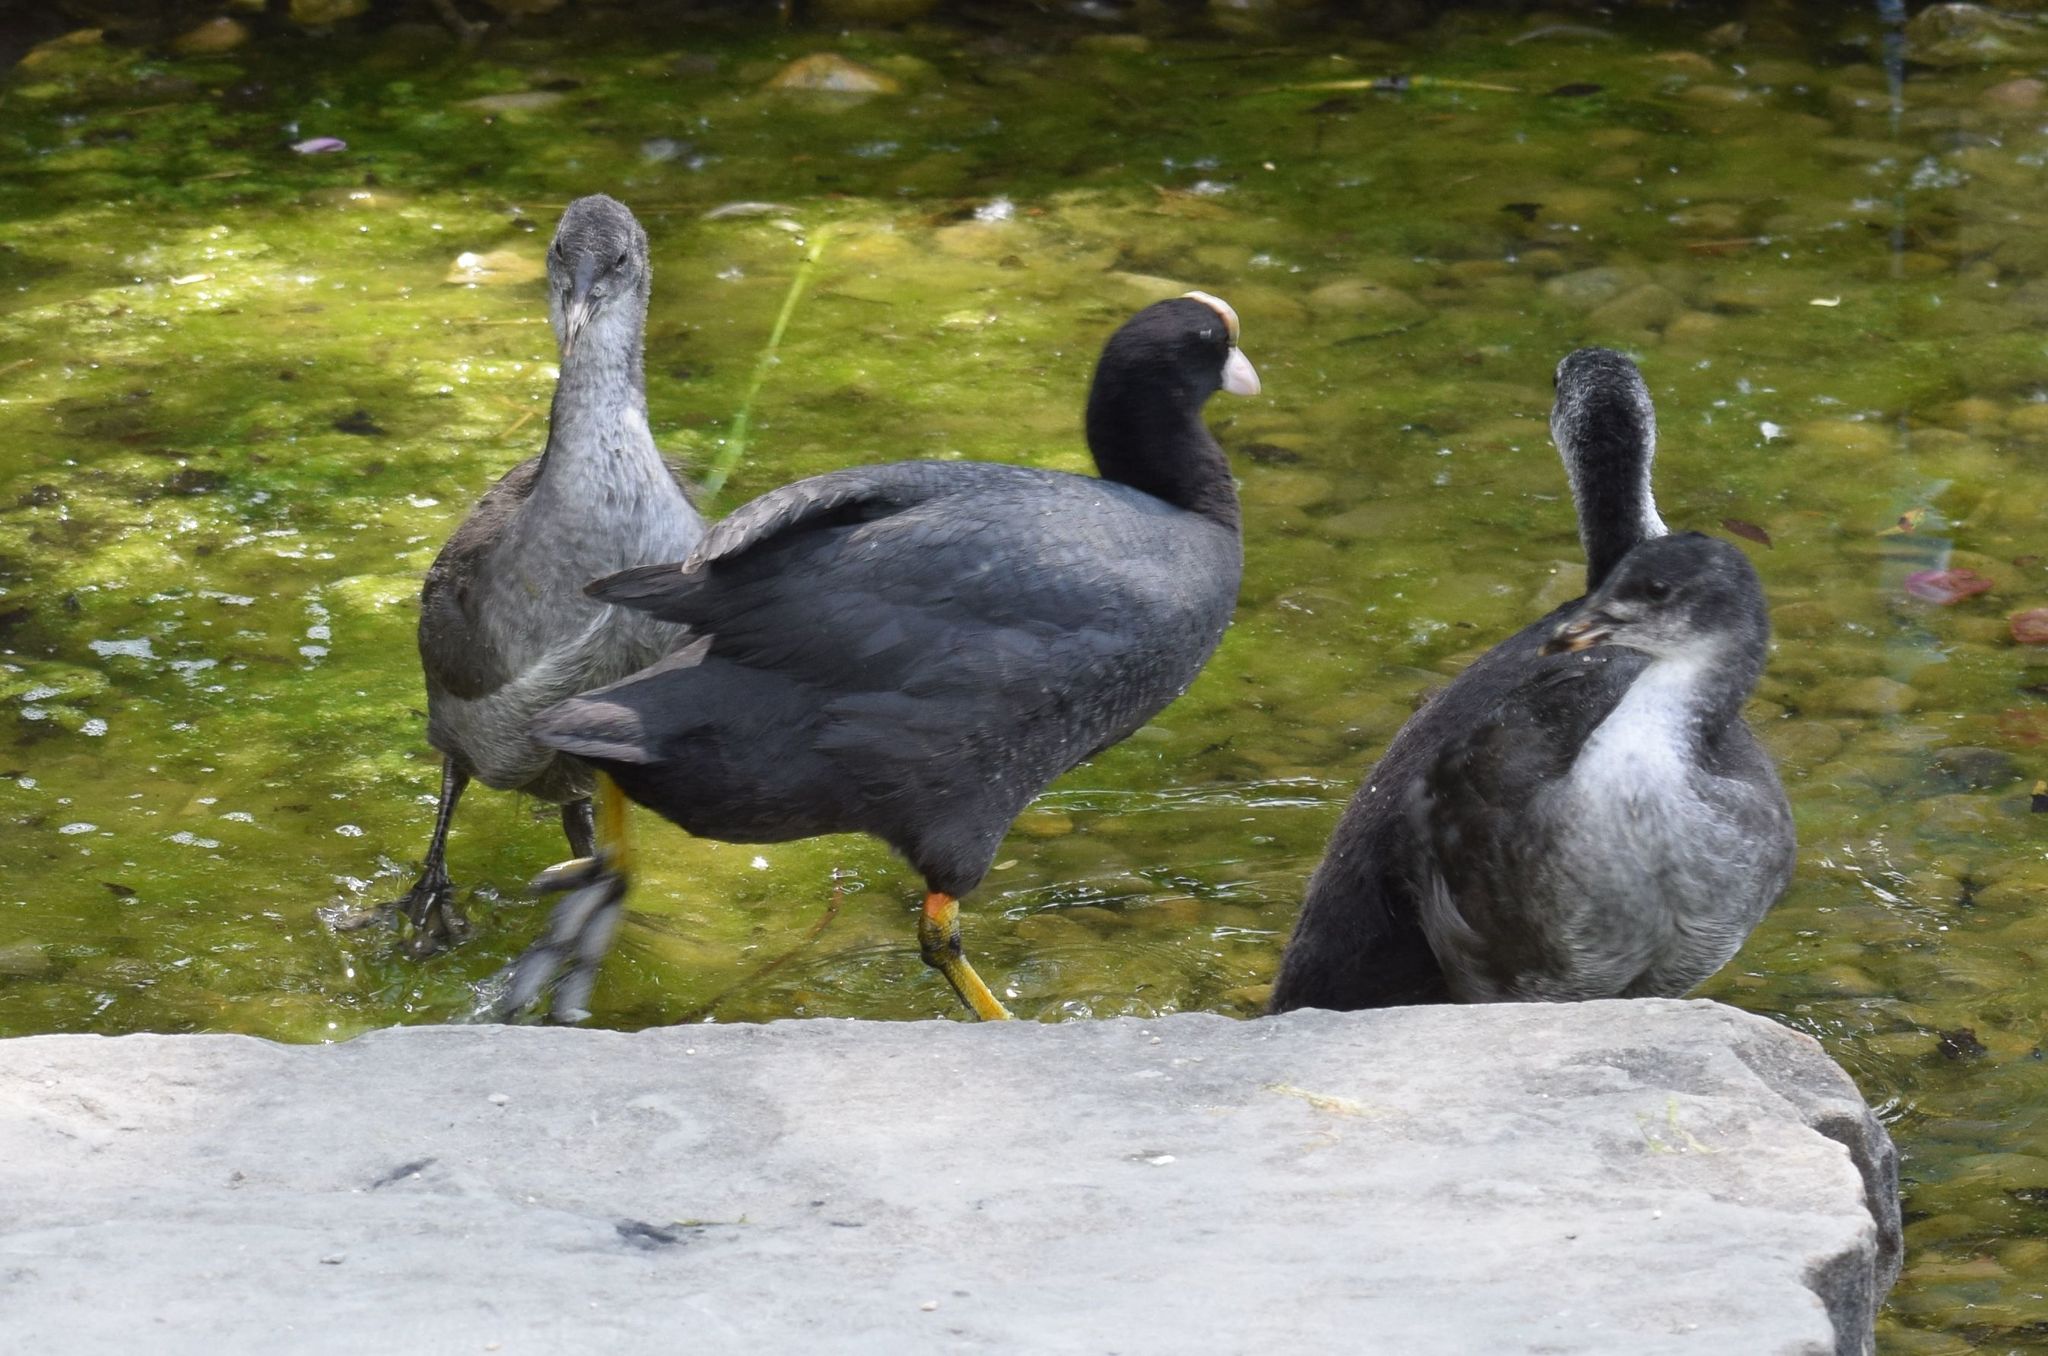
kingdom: Animalia
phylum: Chordata
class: Aves
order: Gruiformes
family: Rallidae
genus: Fulica
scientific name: Fulica atra
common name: Eurasian coot
